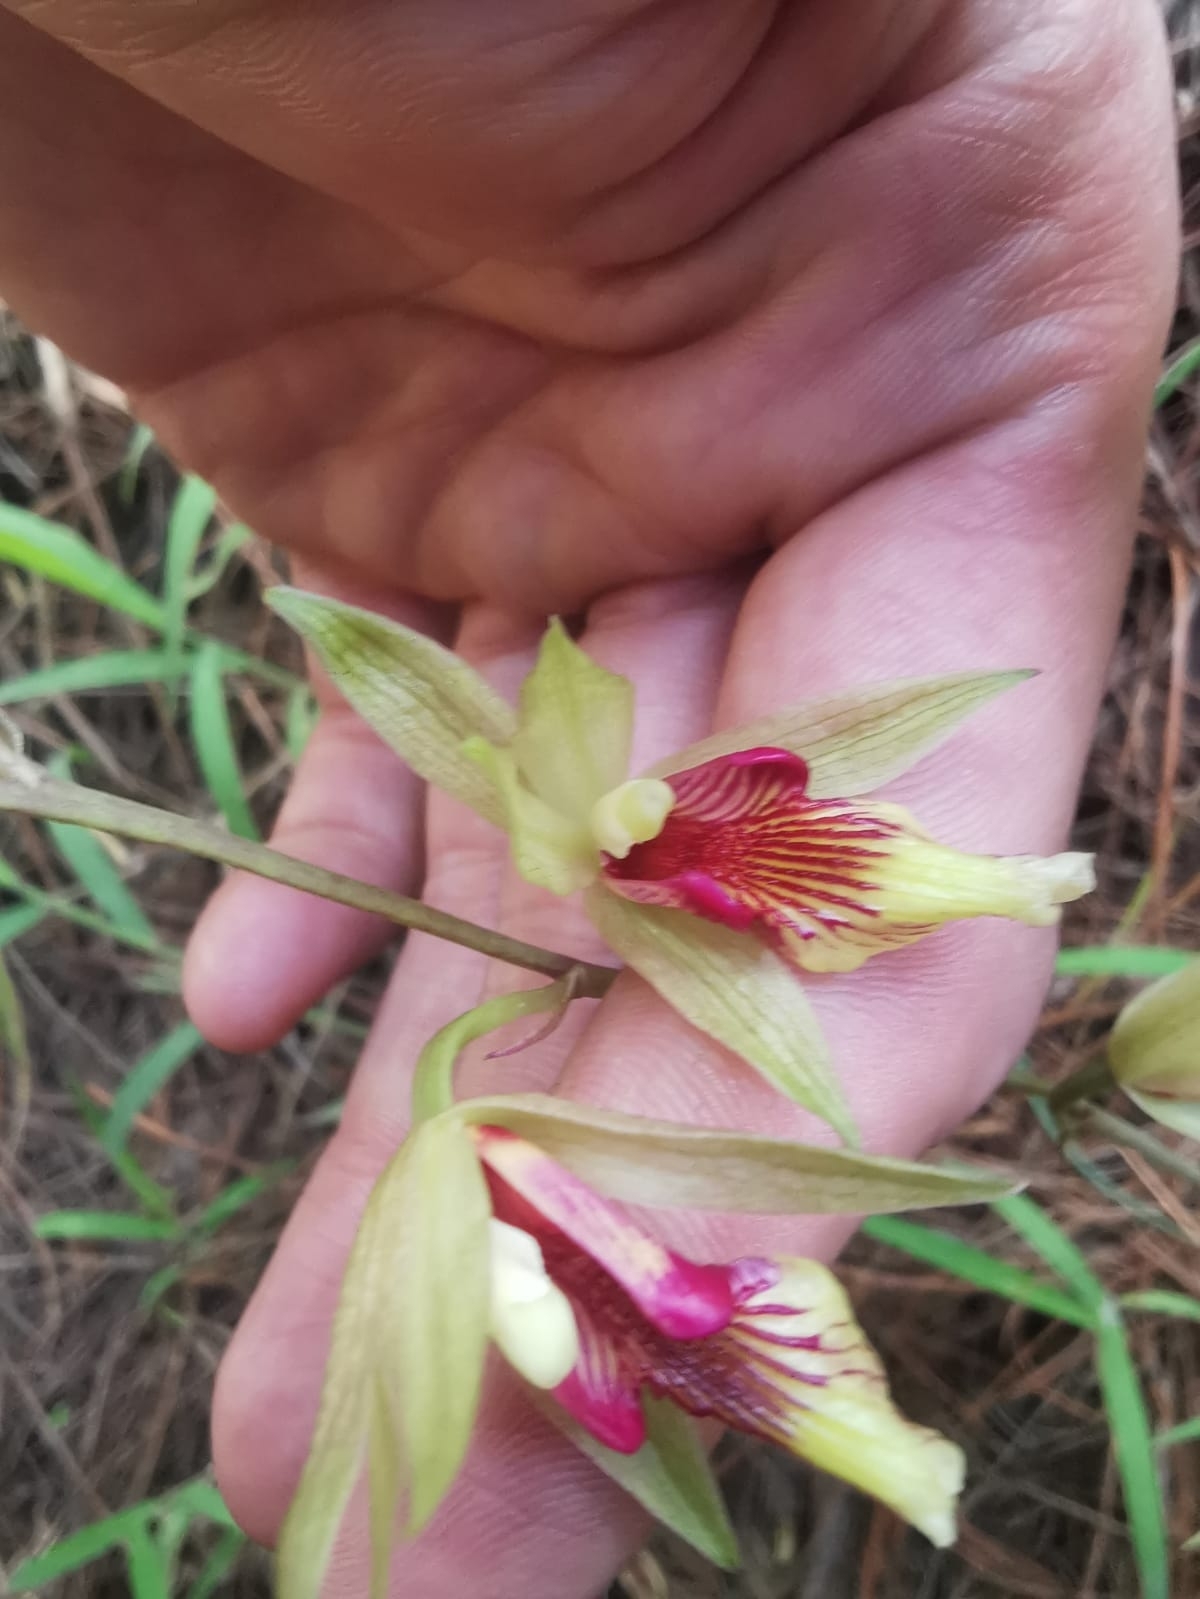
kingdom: Plantae
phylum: Tracheophyta
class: Liliopsida
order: Asparagales
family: Orchidaceae
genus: Bletia
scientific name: Bletia roezlii
